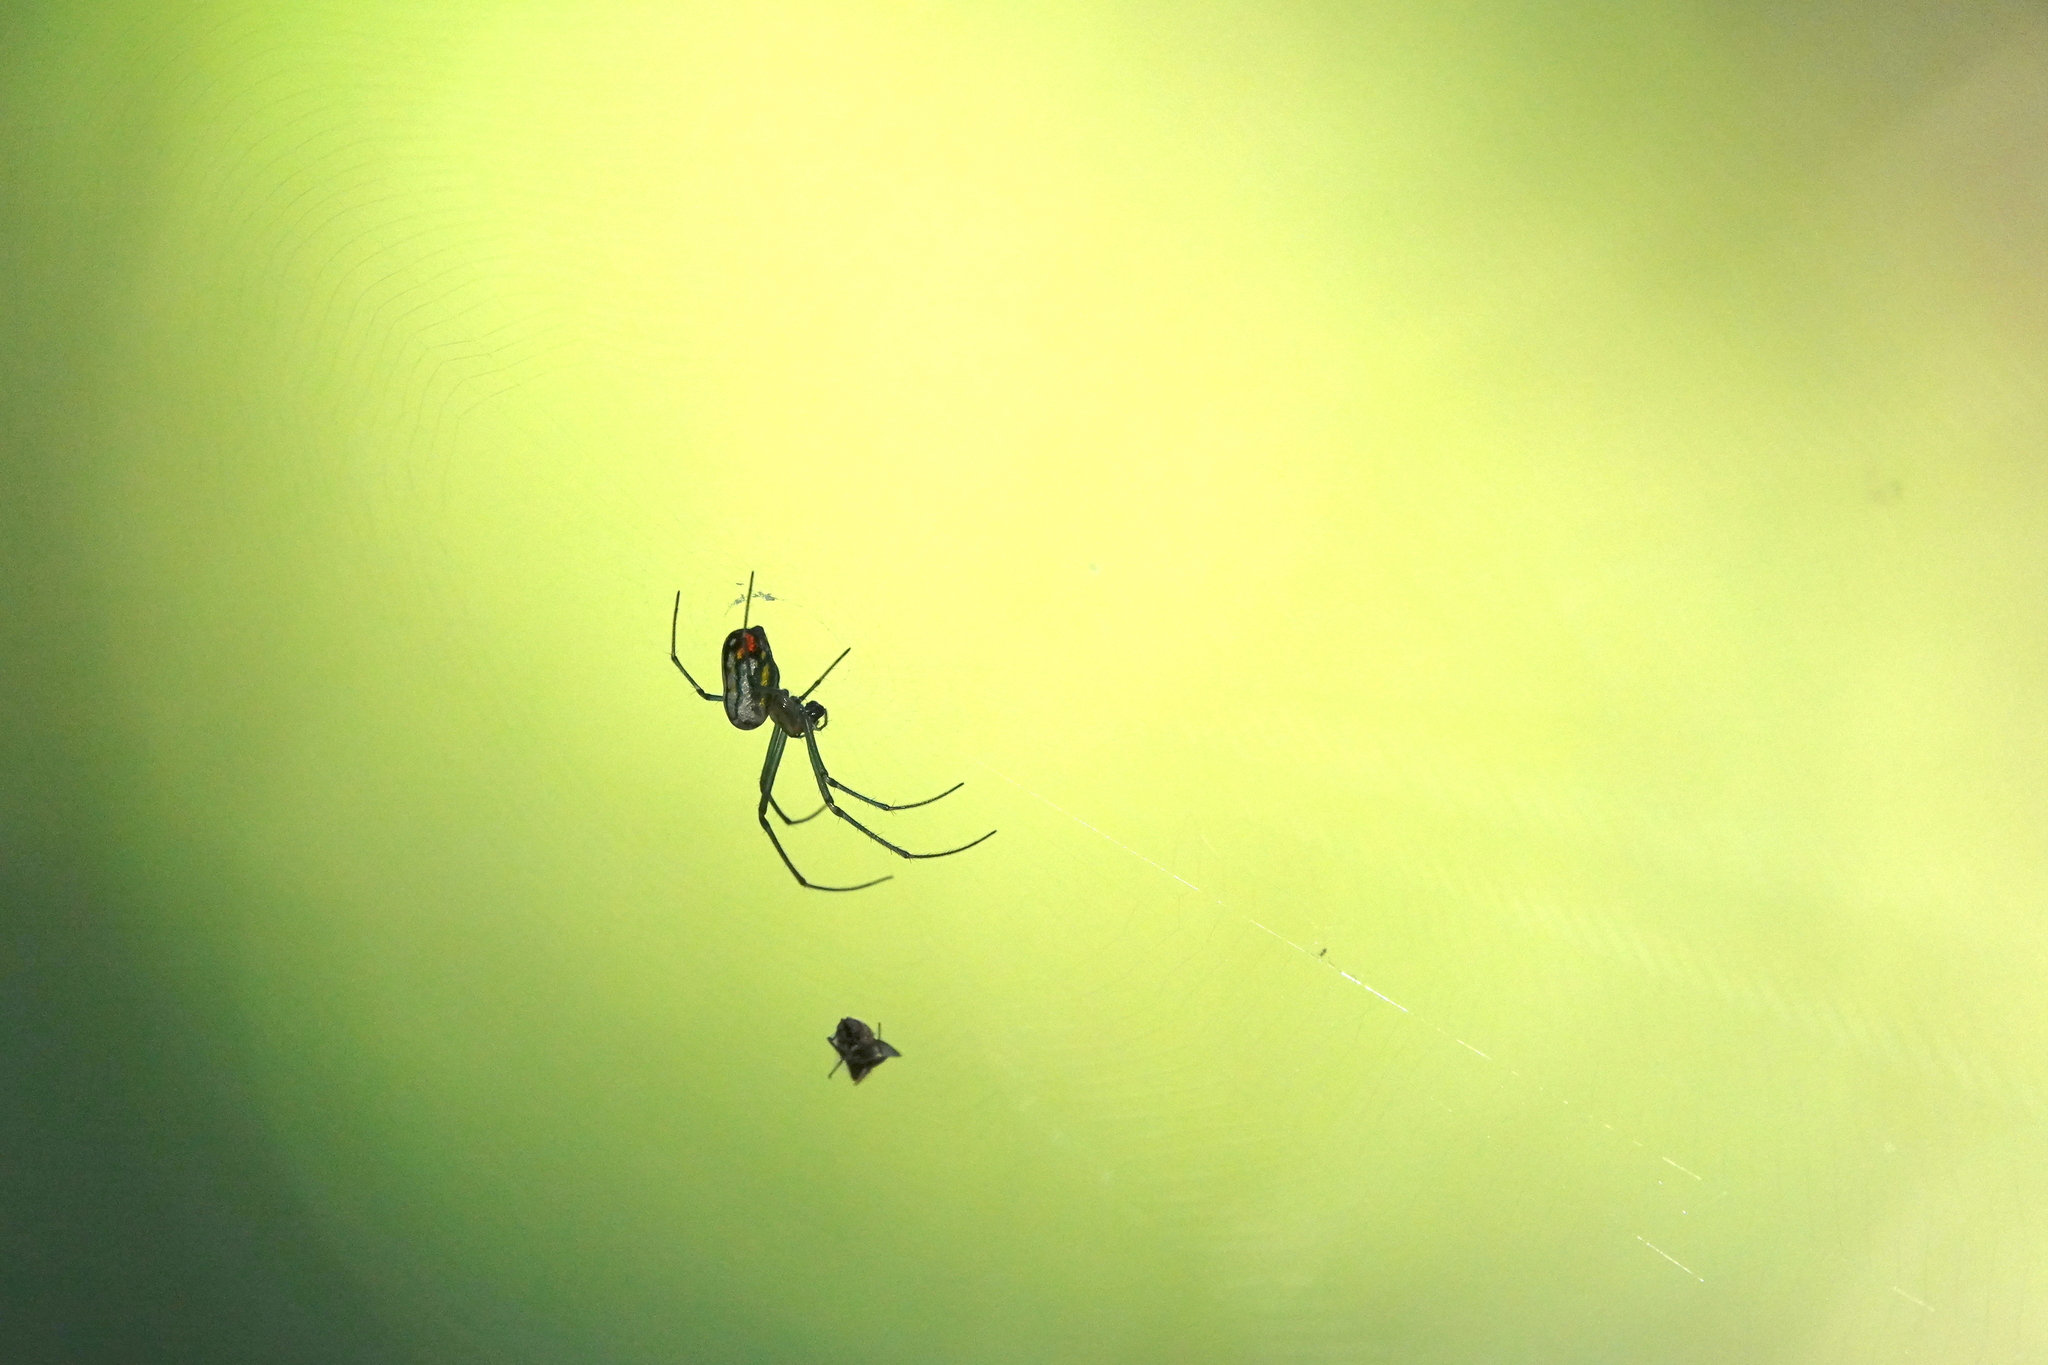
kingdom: Animalia
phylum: Arthropoda
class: Arachnida
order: Araneae
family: Tetragnathidae
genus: Leucauge
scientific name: Leucauge argyrobapta
